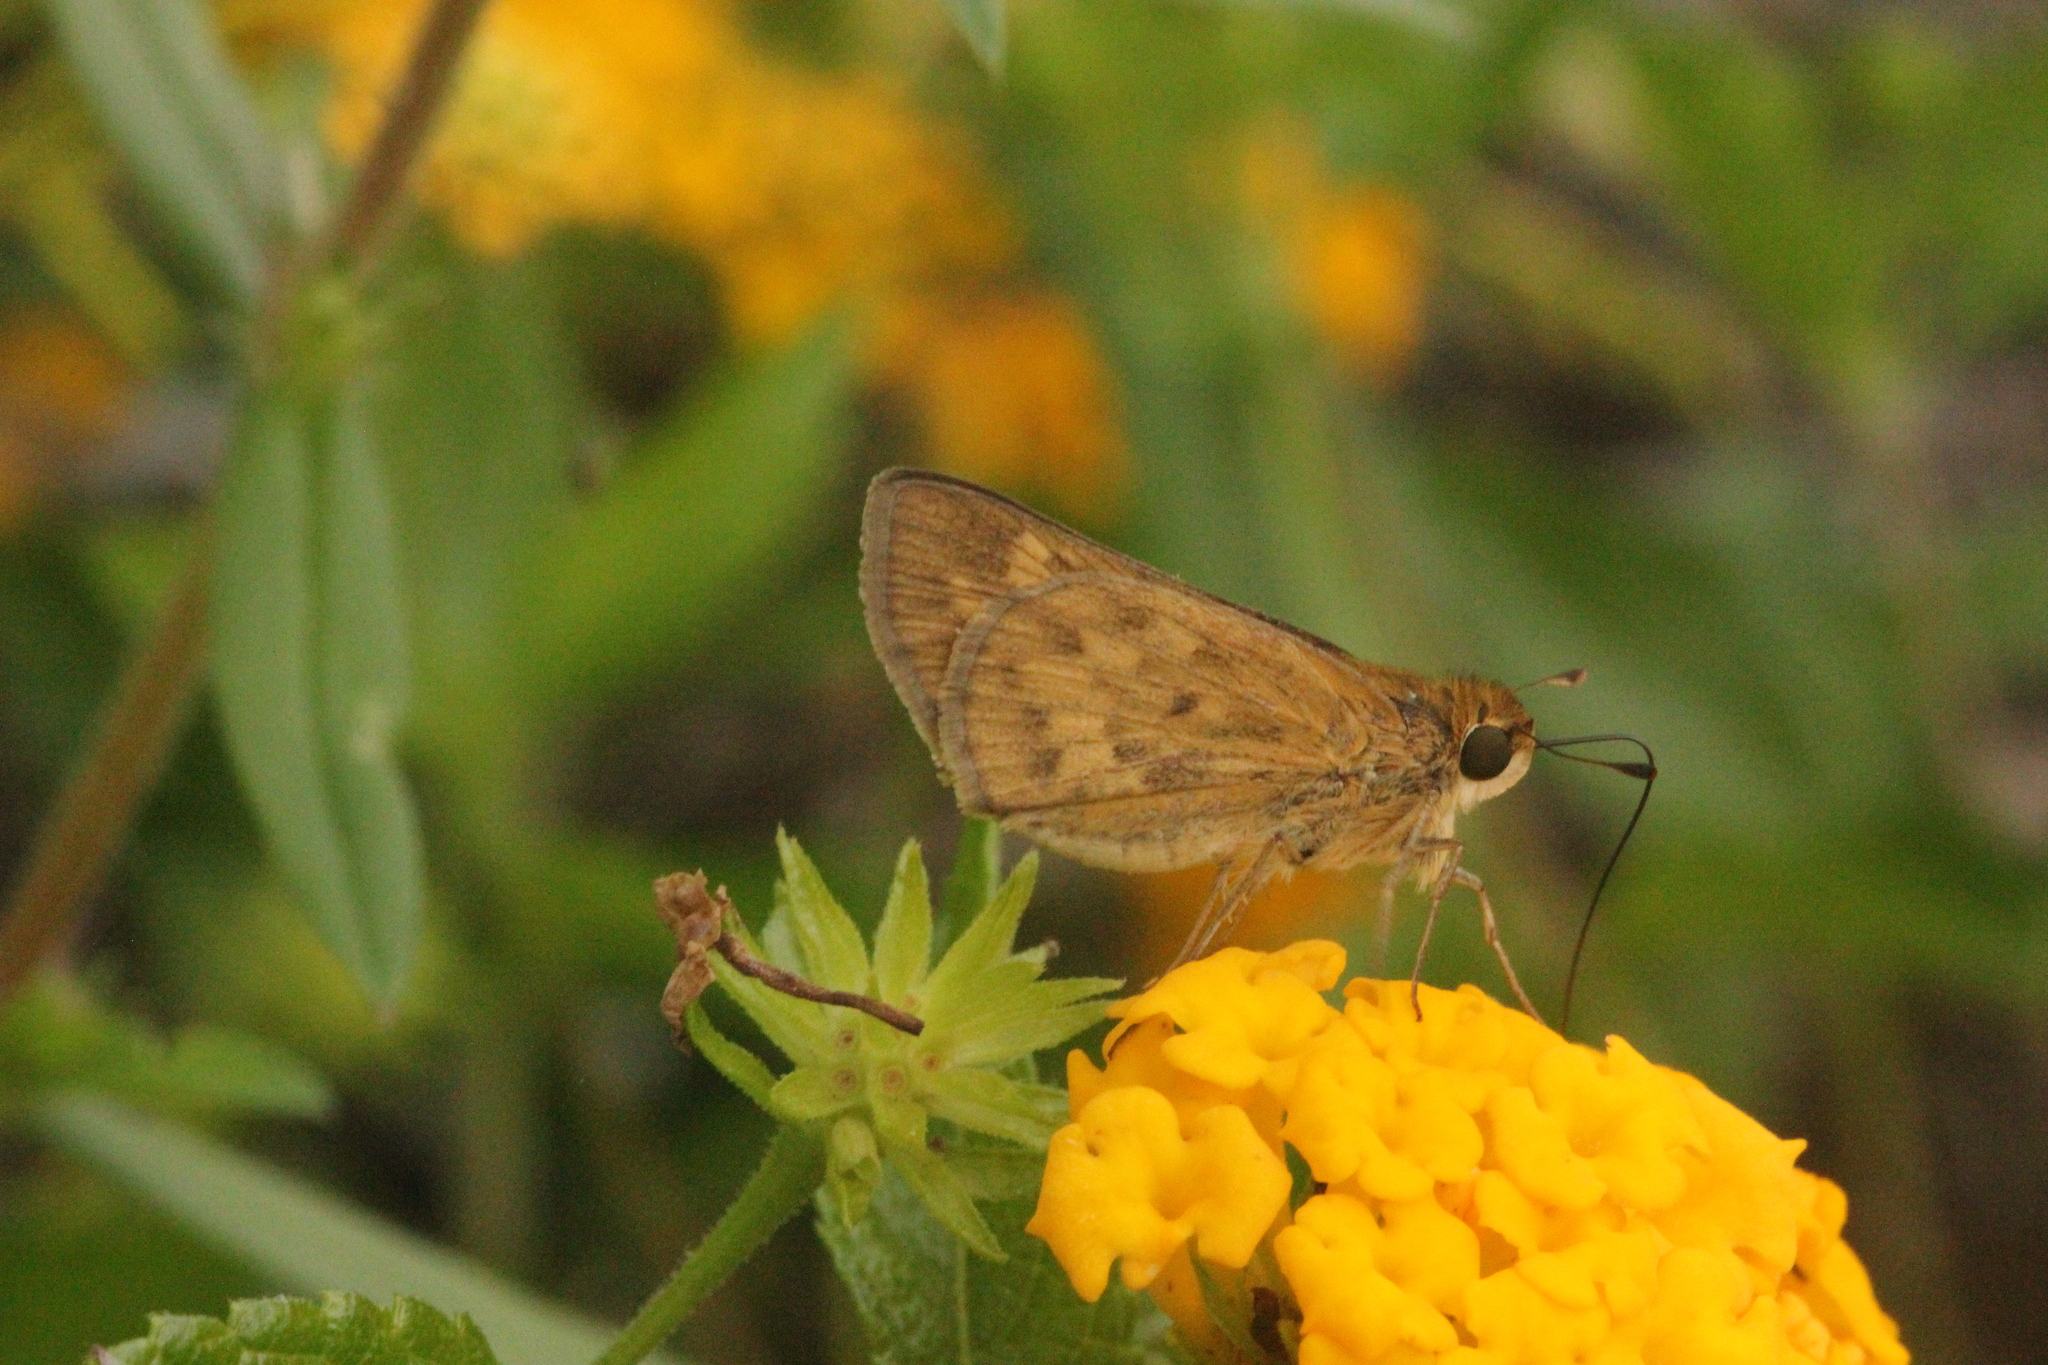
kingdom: Animalia
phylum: Arthropoda
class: Insecta
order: Lepidoptera
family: Hesperiidae
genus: Hylephila
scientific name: Hylephila phyleus
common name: Fiery skipper
